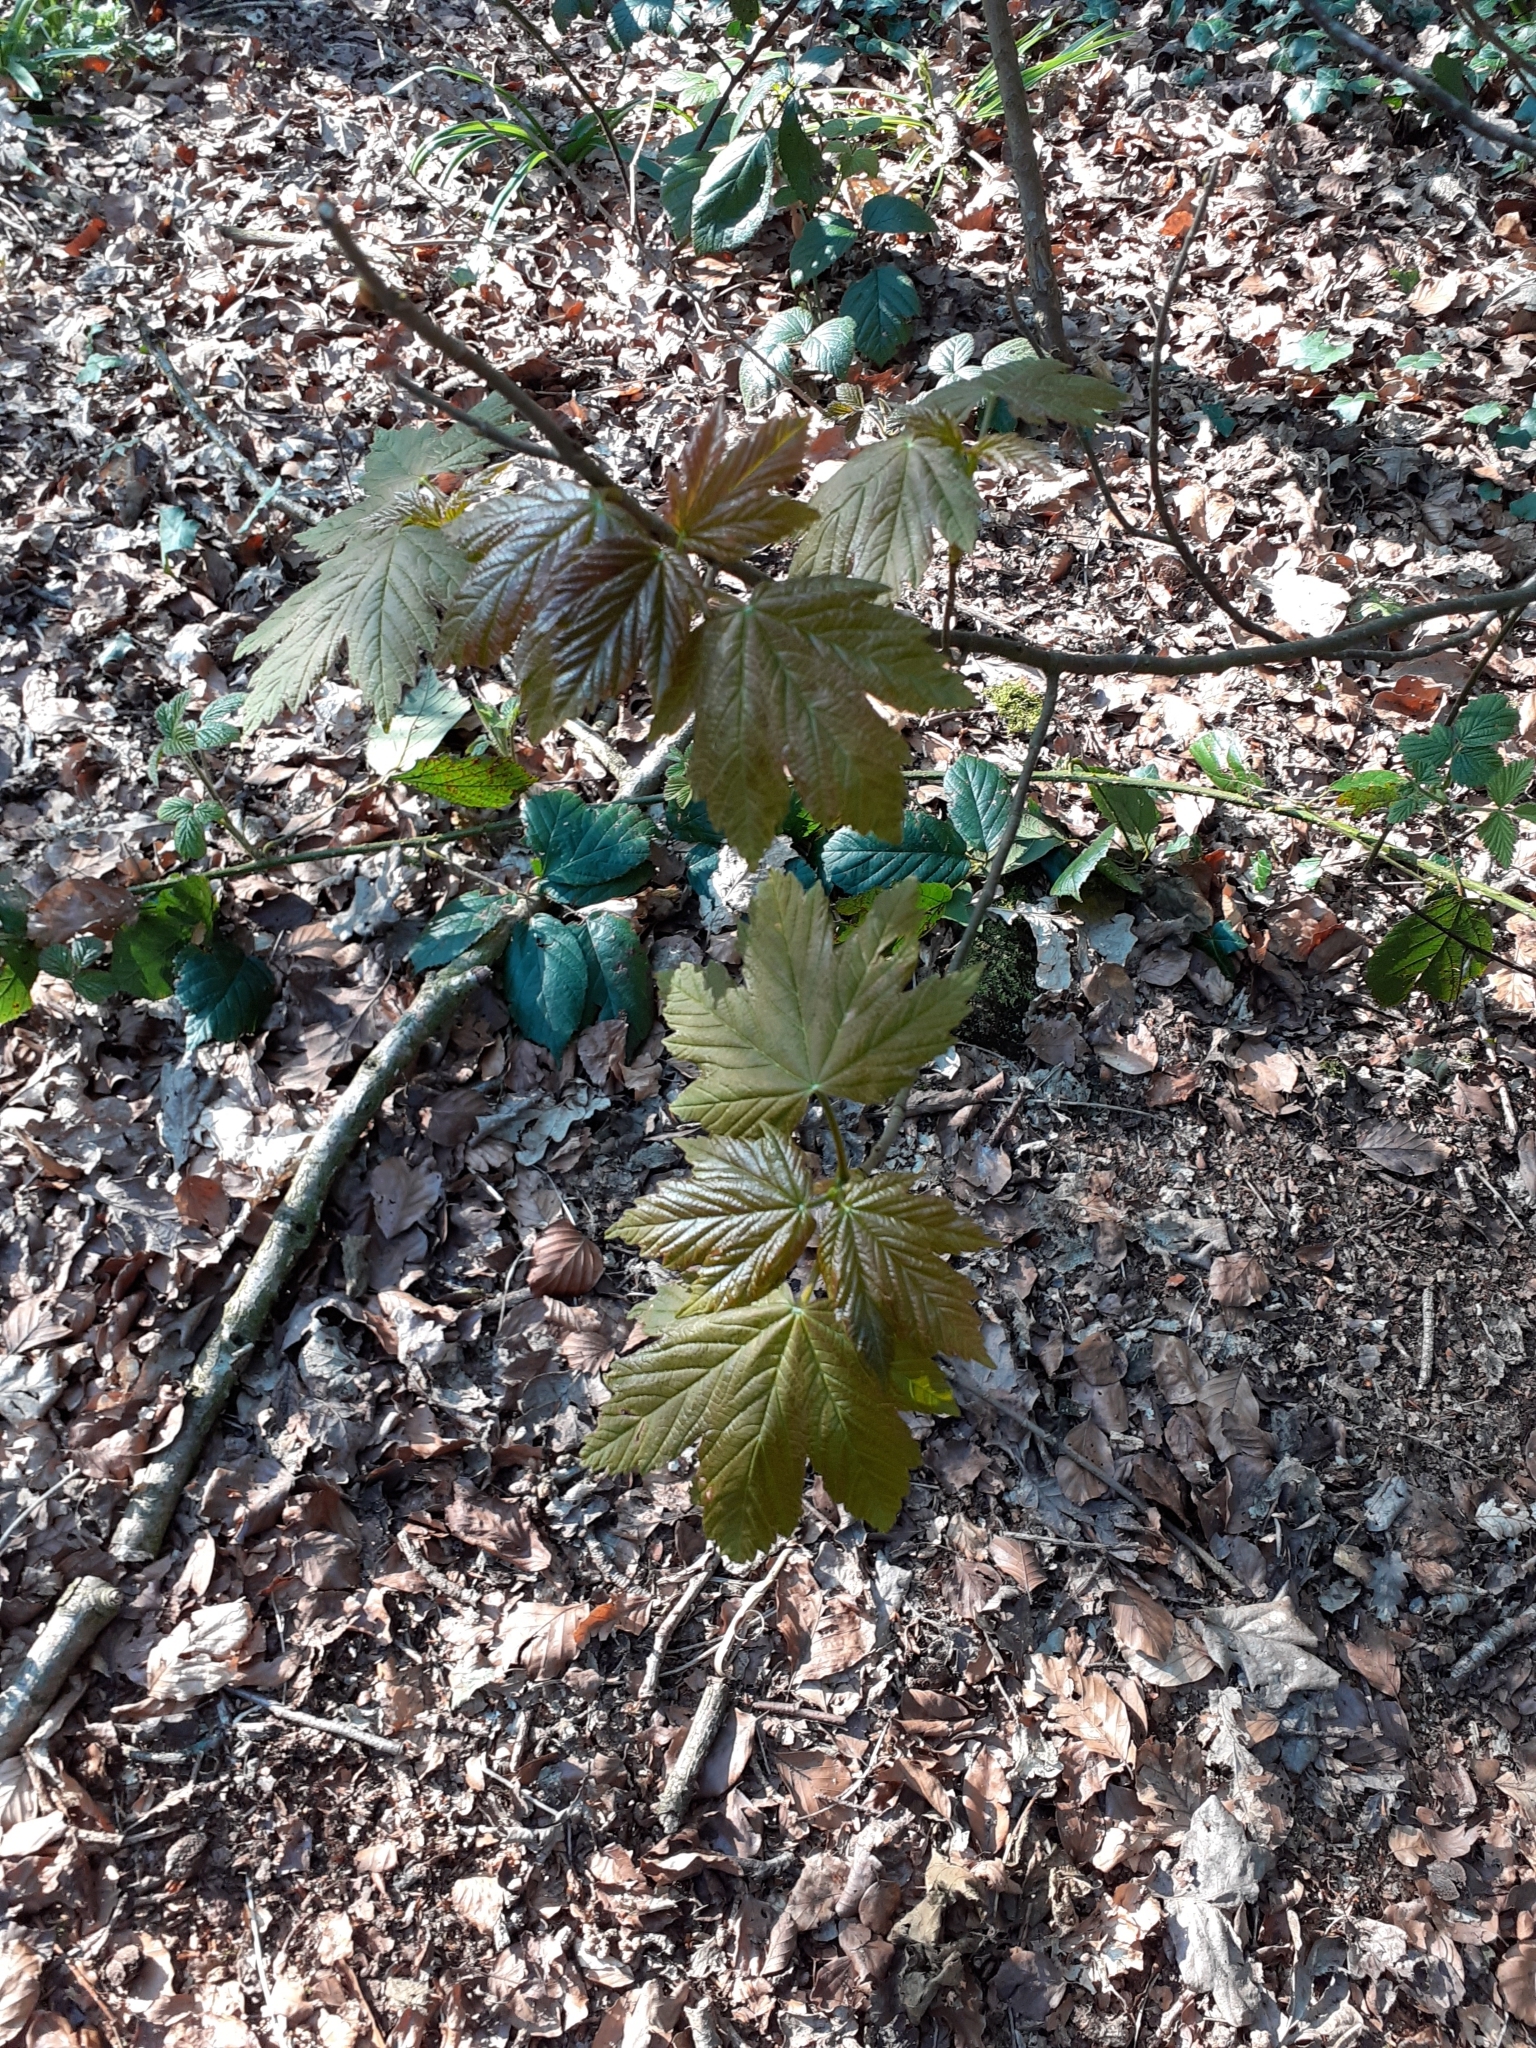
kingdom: Plantae
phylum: Tracheophyta
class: Magnoliopsida
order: Sapindales
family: Sapindaceae
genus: Acer
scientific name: Acer pseudoplatanus
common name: Sycamore
